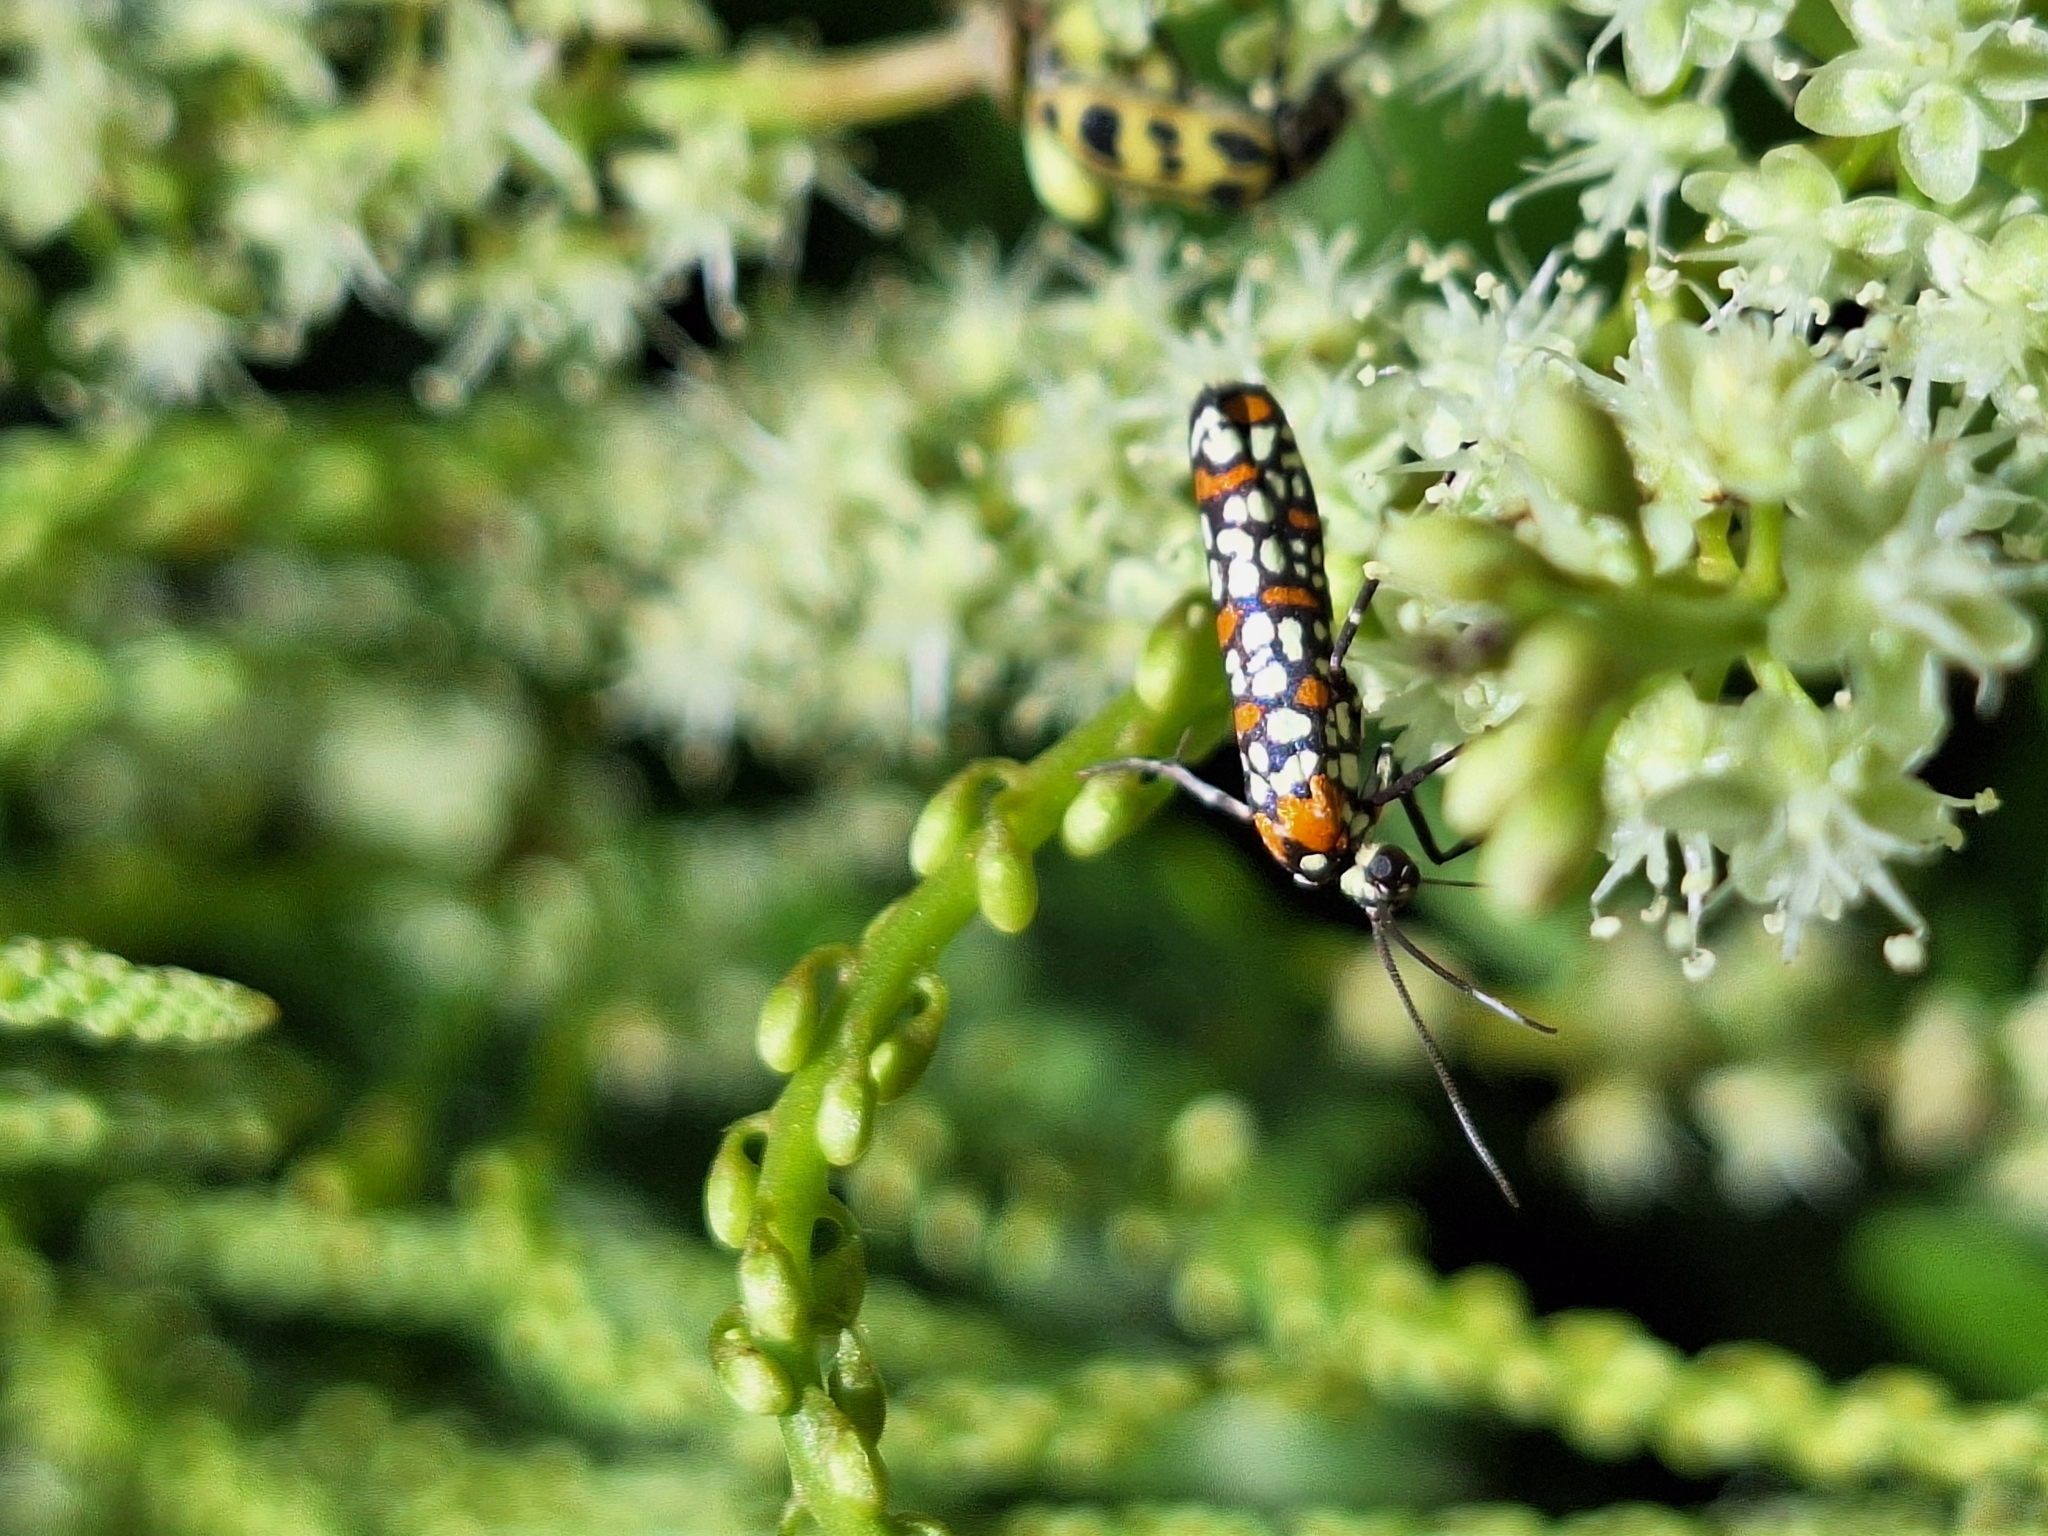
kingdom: Animalia
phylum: Arthropoda
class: Insecta
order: Lepidoptera
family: Attevidae
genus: Atteva
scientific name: Atteva punctella
